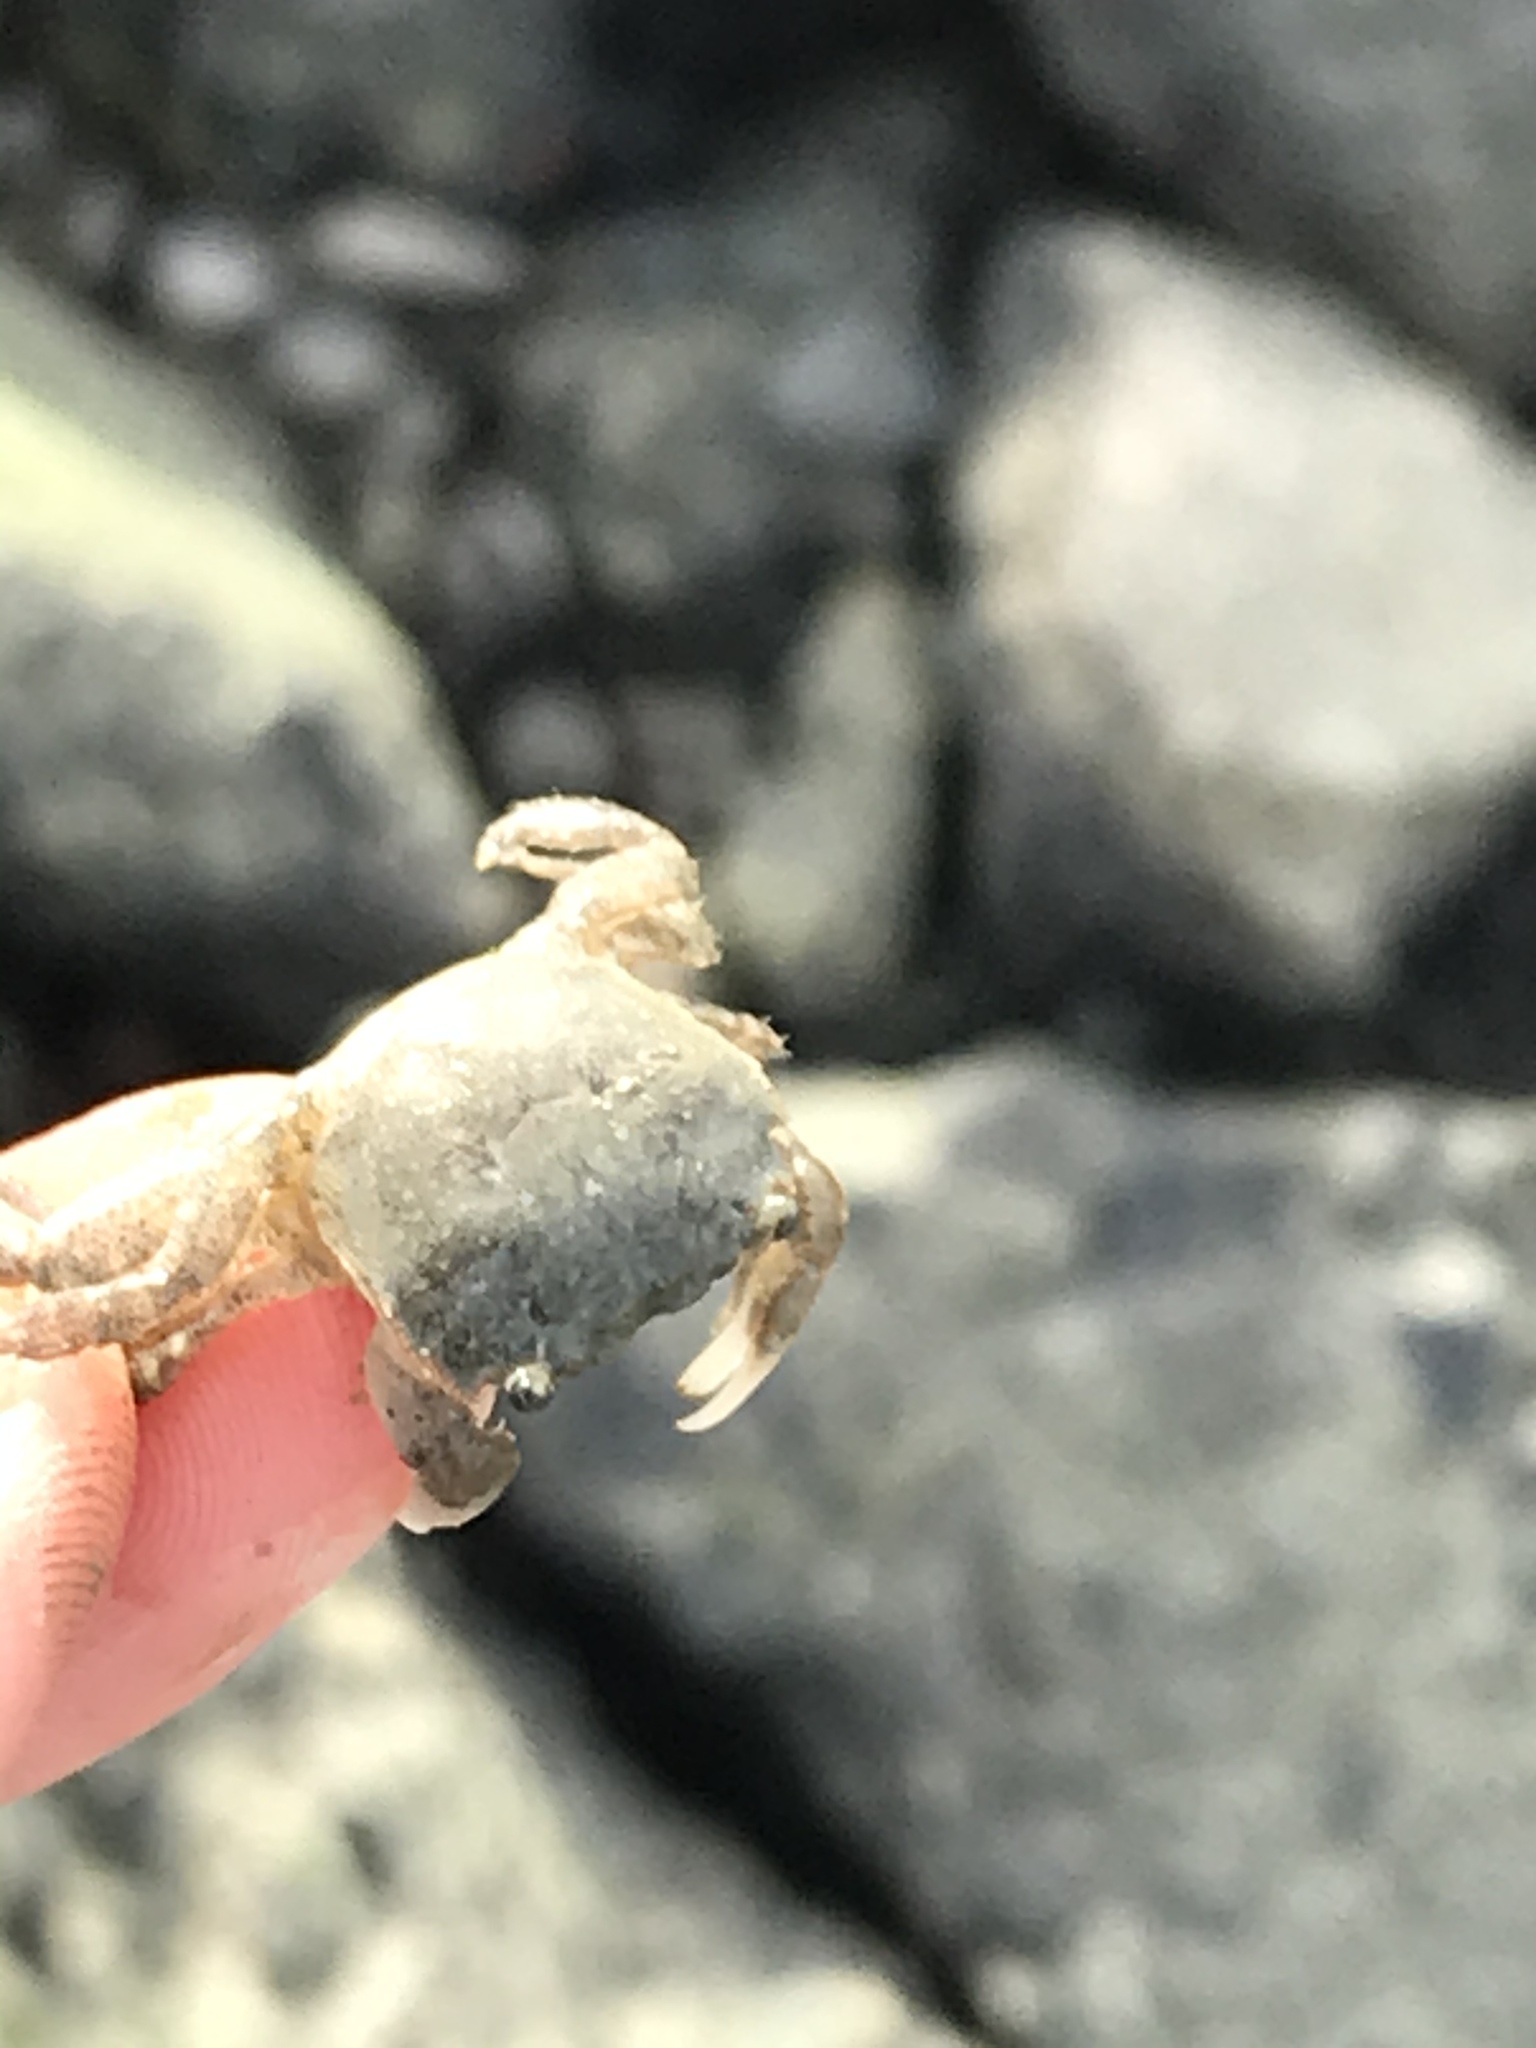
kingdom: Animalia
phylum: Arthropoda
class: Malacostraca
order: Decapoda
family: Varunidae
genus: Hemigrapsus
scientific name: Hemigrapsus oregonensis
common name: Yellow shore crab
